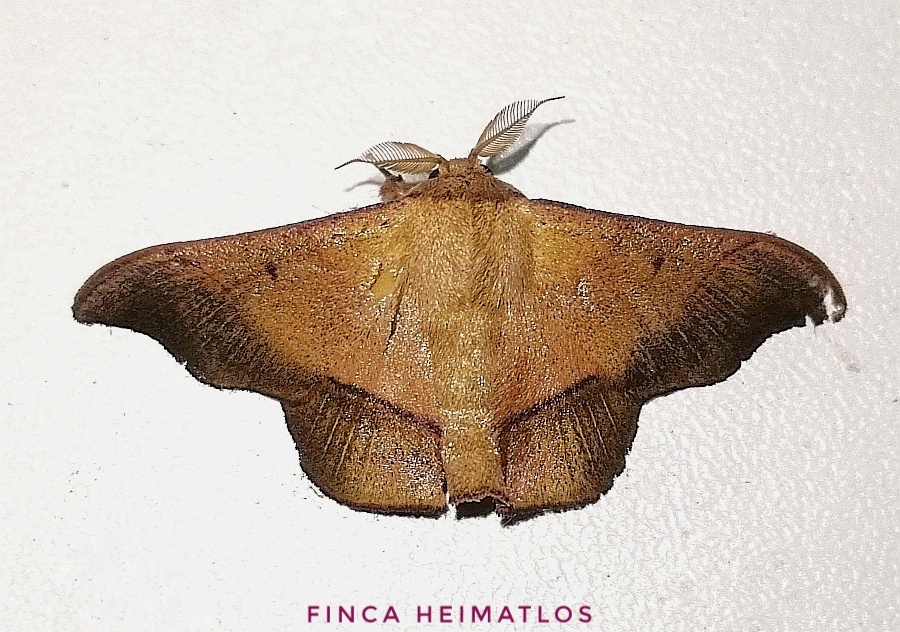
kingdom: Animalia
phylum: Arthropoda
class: Insecta
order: Lepidoptera
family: Mimallonidae
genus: Alheita
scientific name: Alheita
